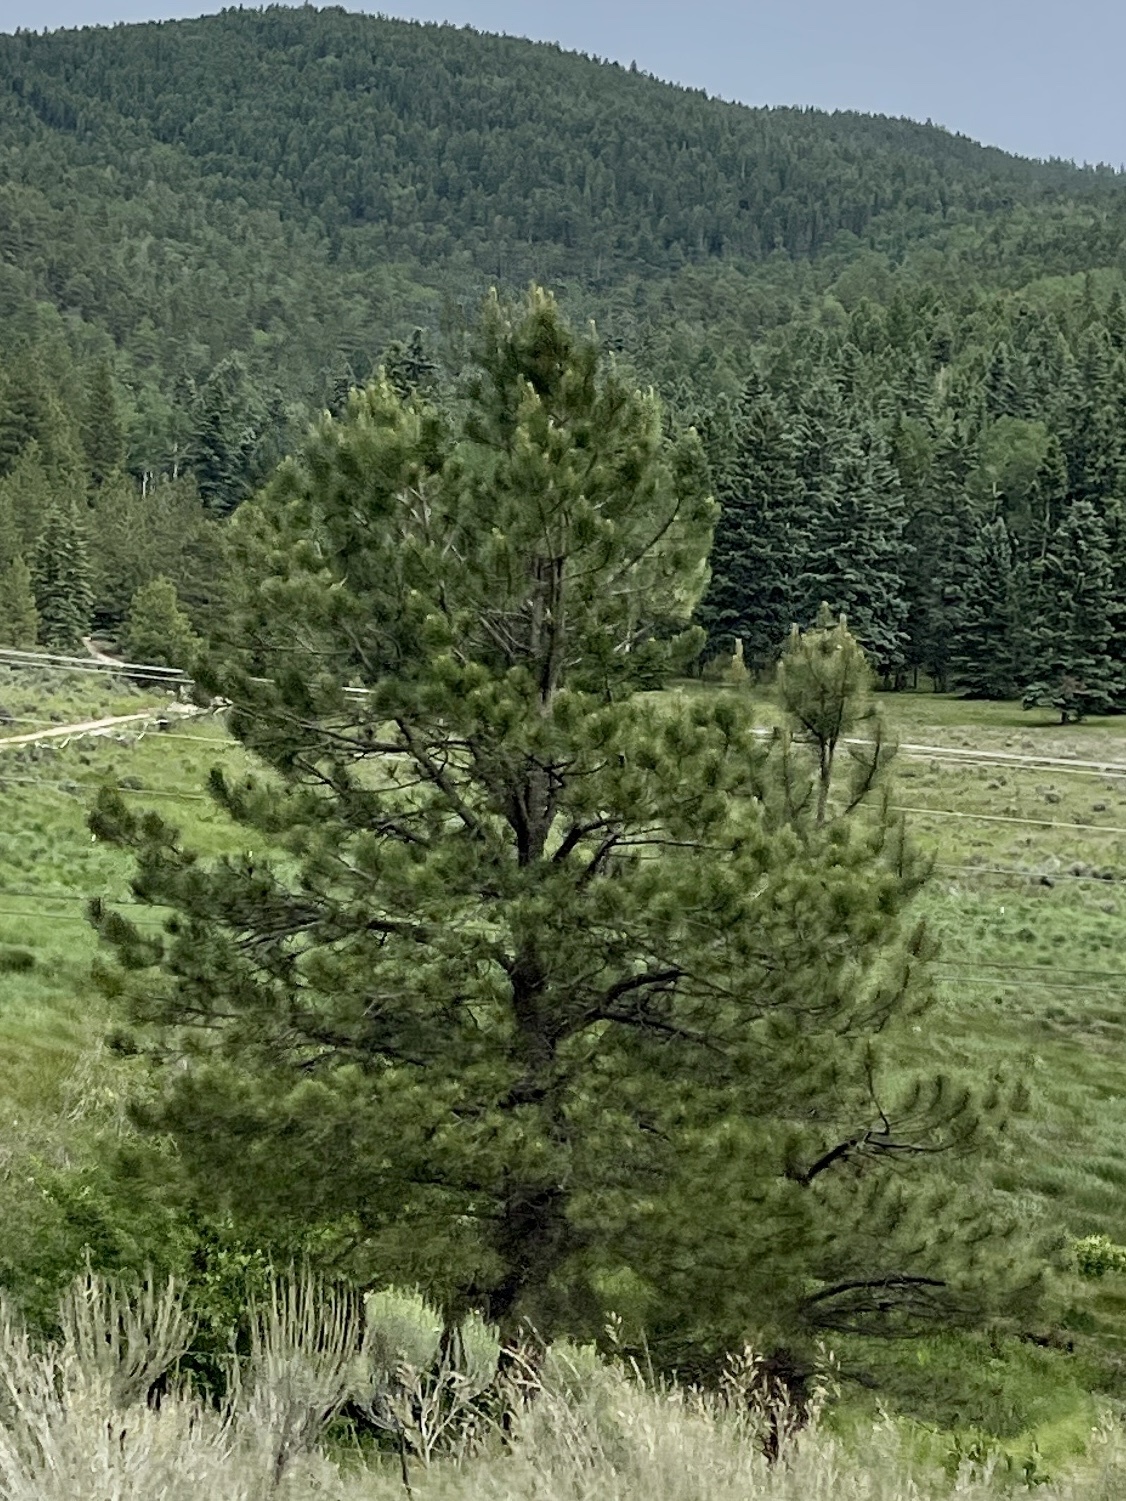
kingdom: Plantae
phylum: Tracheophyta
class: Pinopsida
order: Pinales
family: Pinaceae
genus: Pinus
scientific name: Pinus ponderosa
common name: Western yellow-pine
